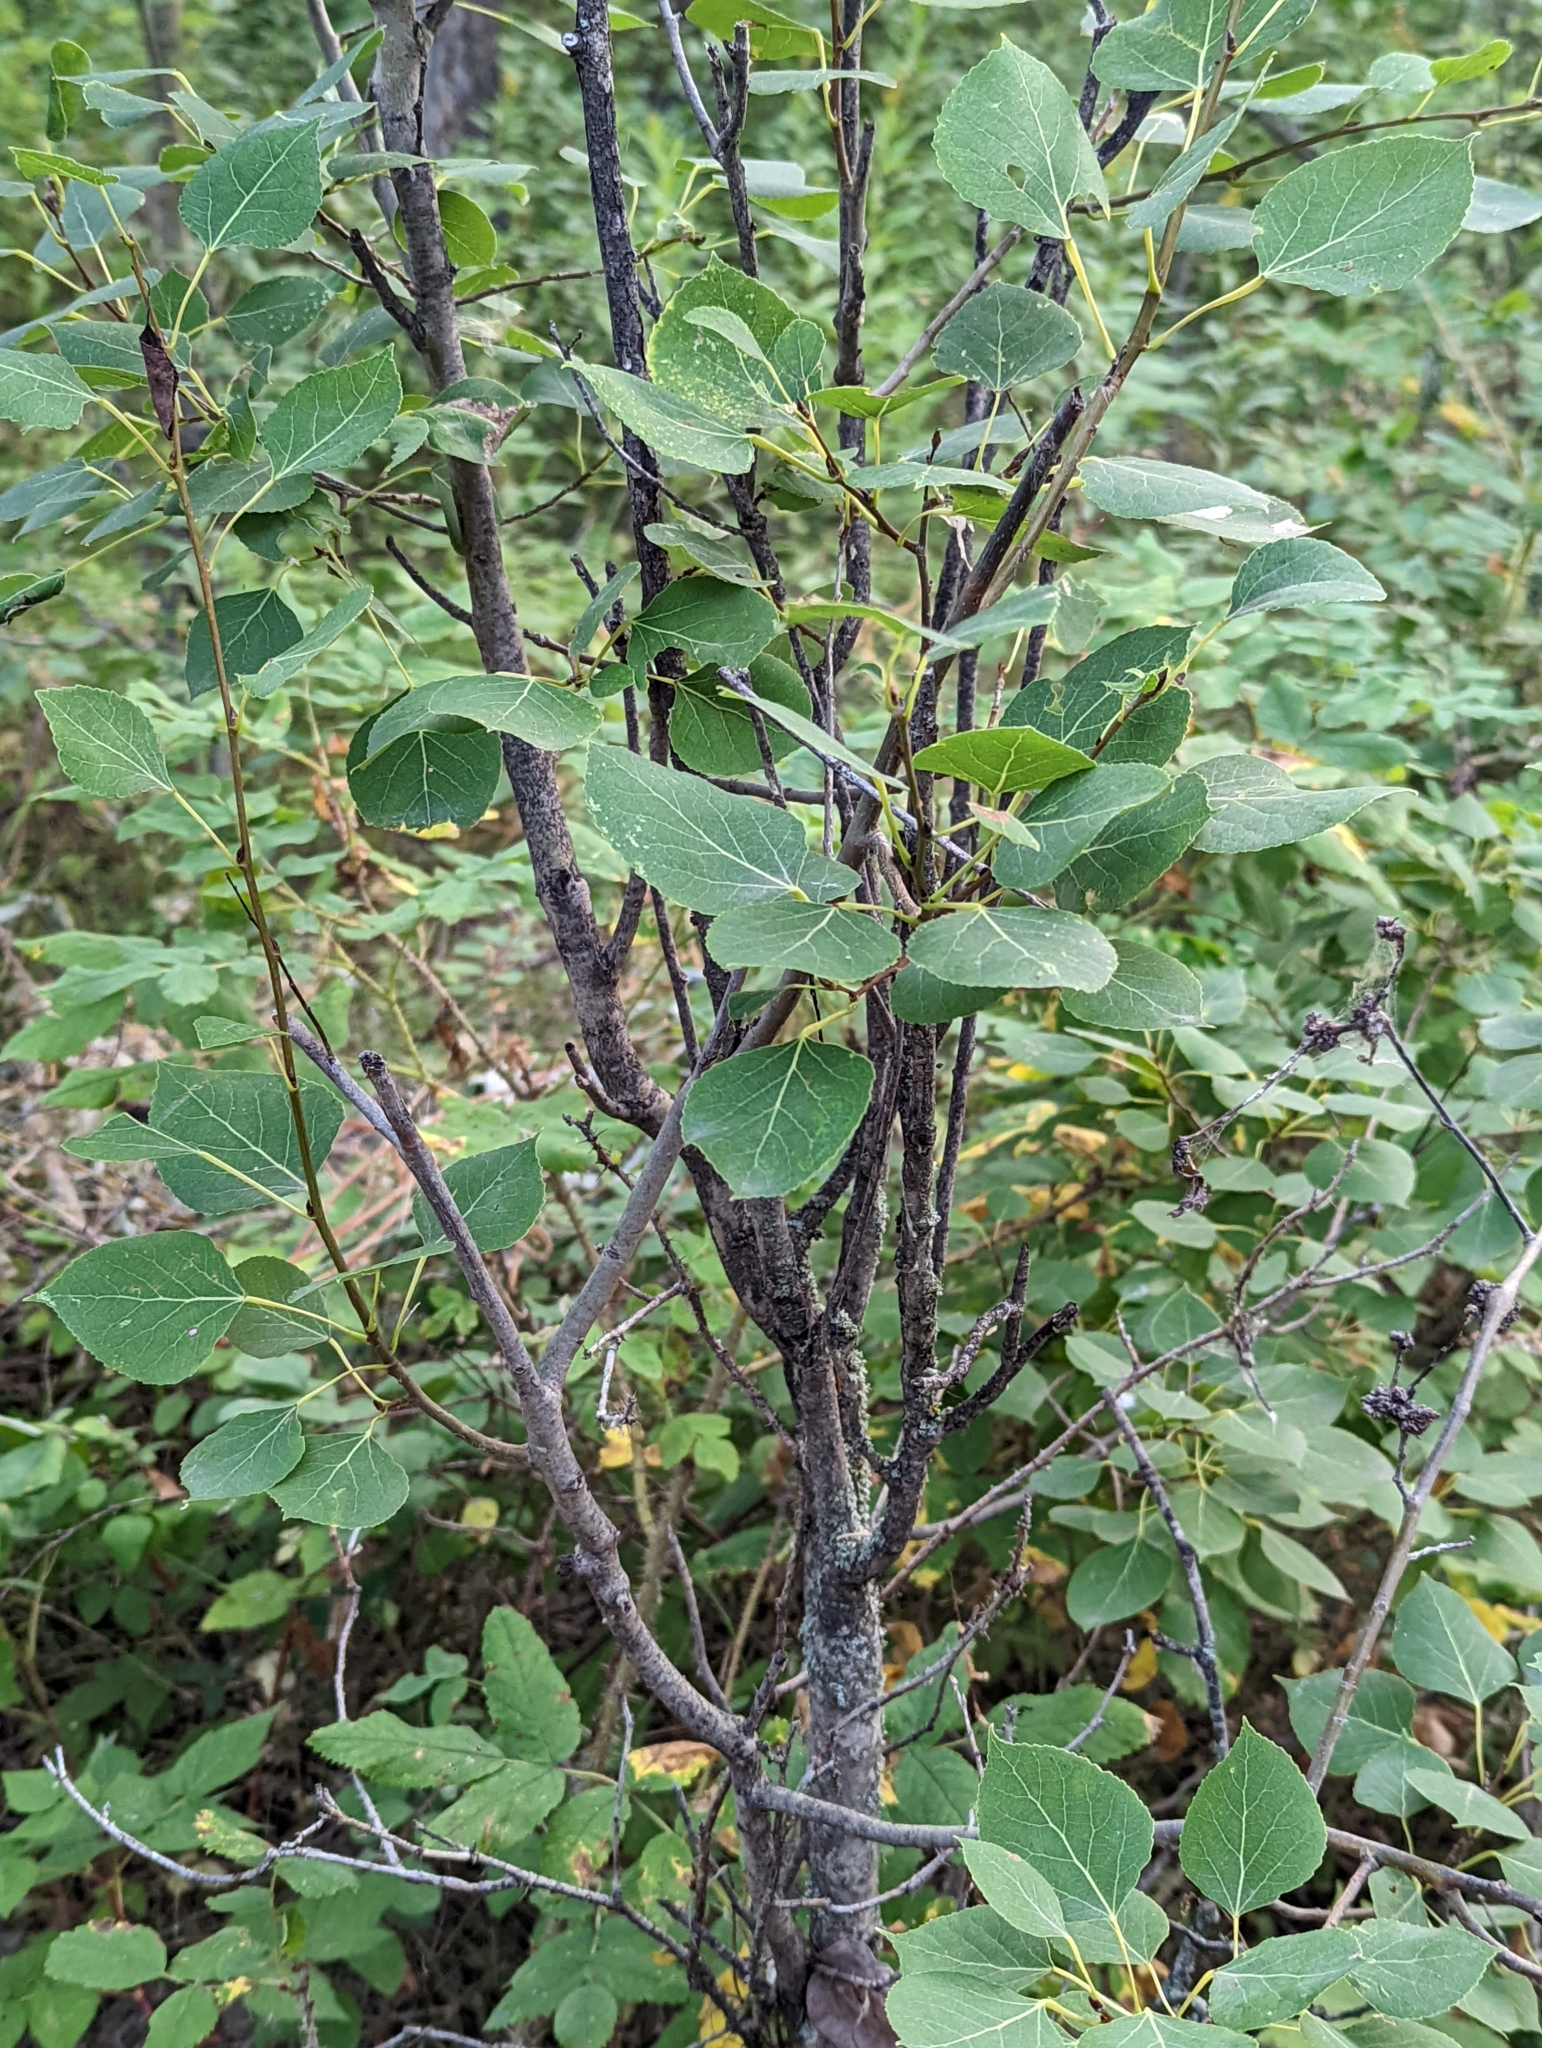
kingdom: Plantae
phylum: Tracheophyta
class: Magnoliopsida
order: Malpighiales
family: Salicaceae
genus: Populus
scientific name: Populus tremuloides
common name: Quaking aspen
